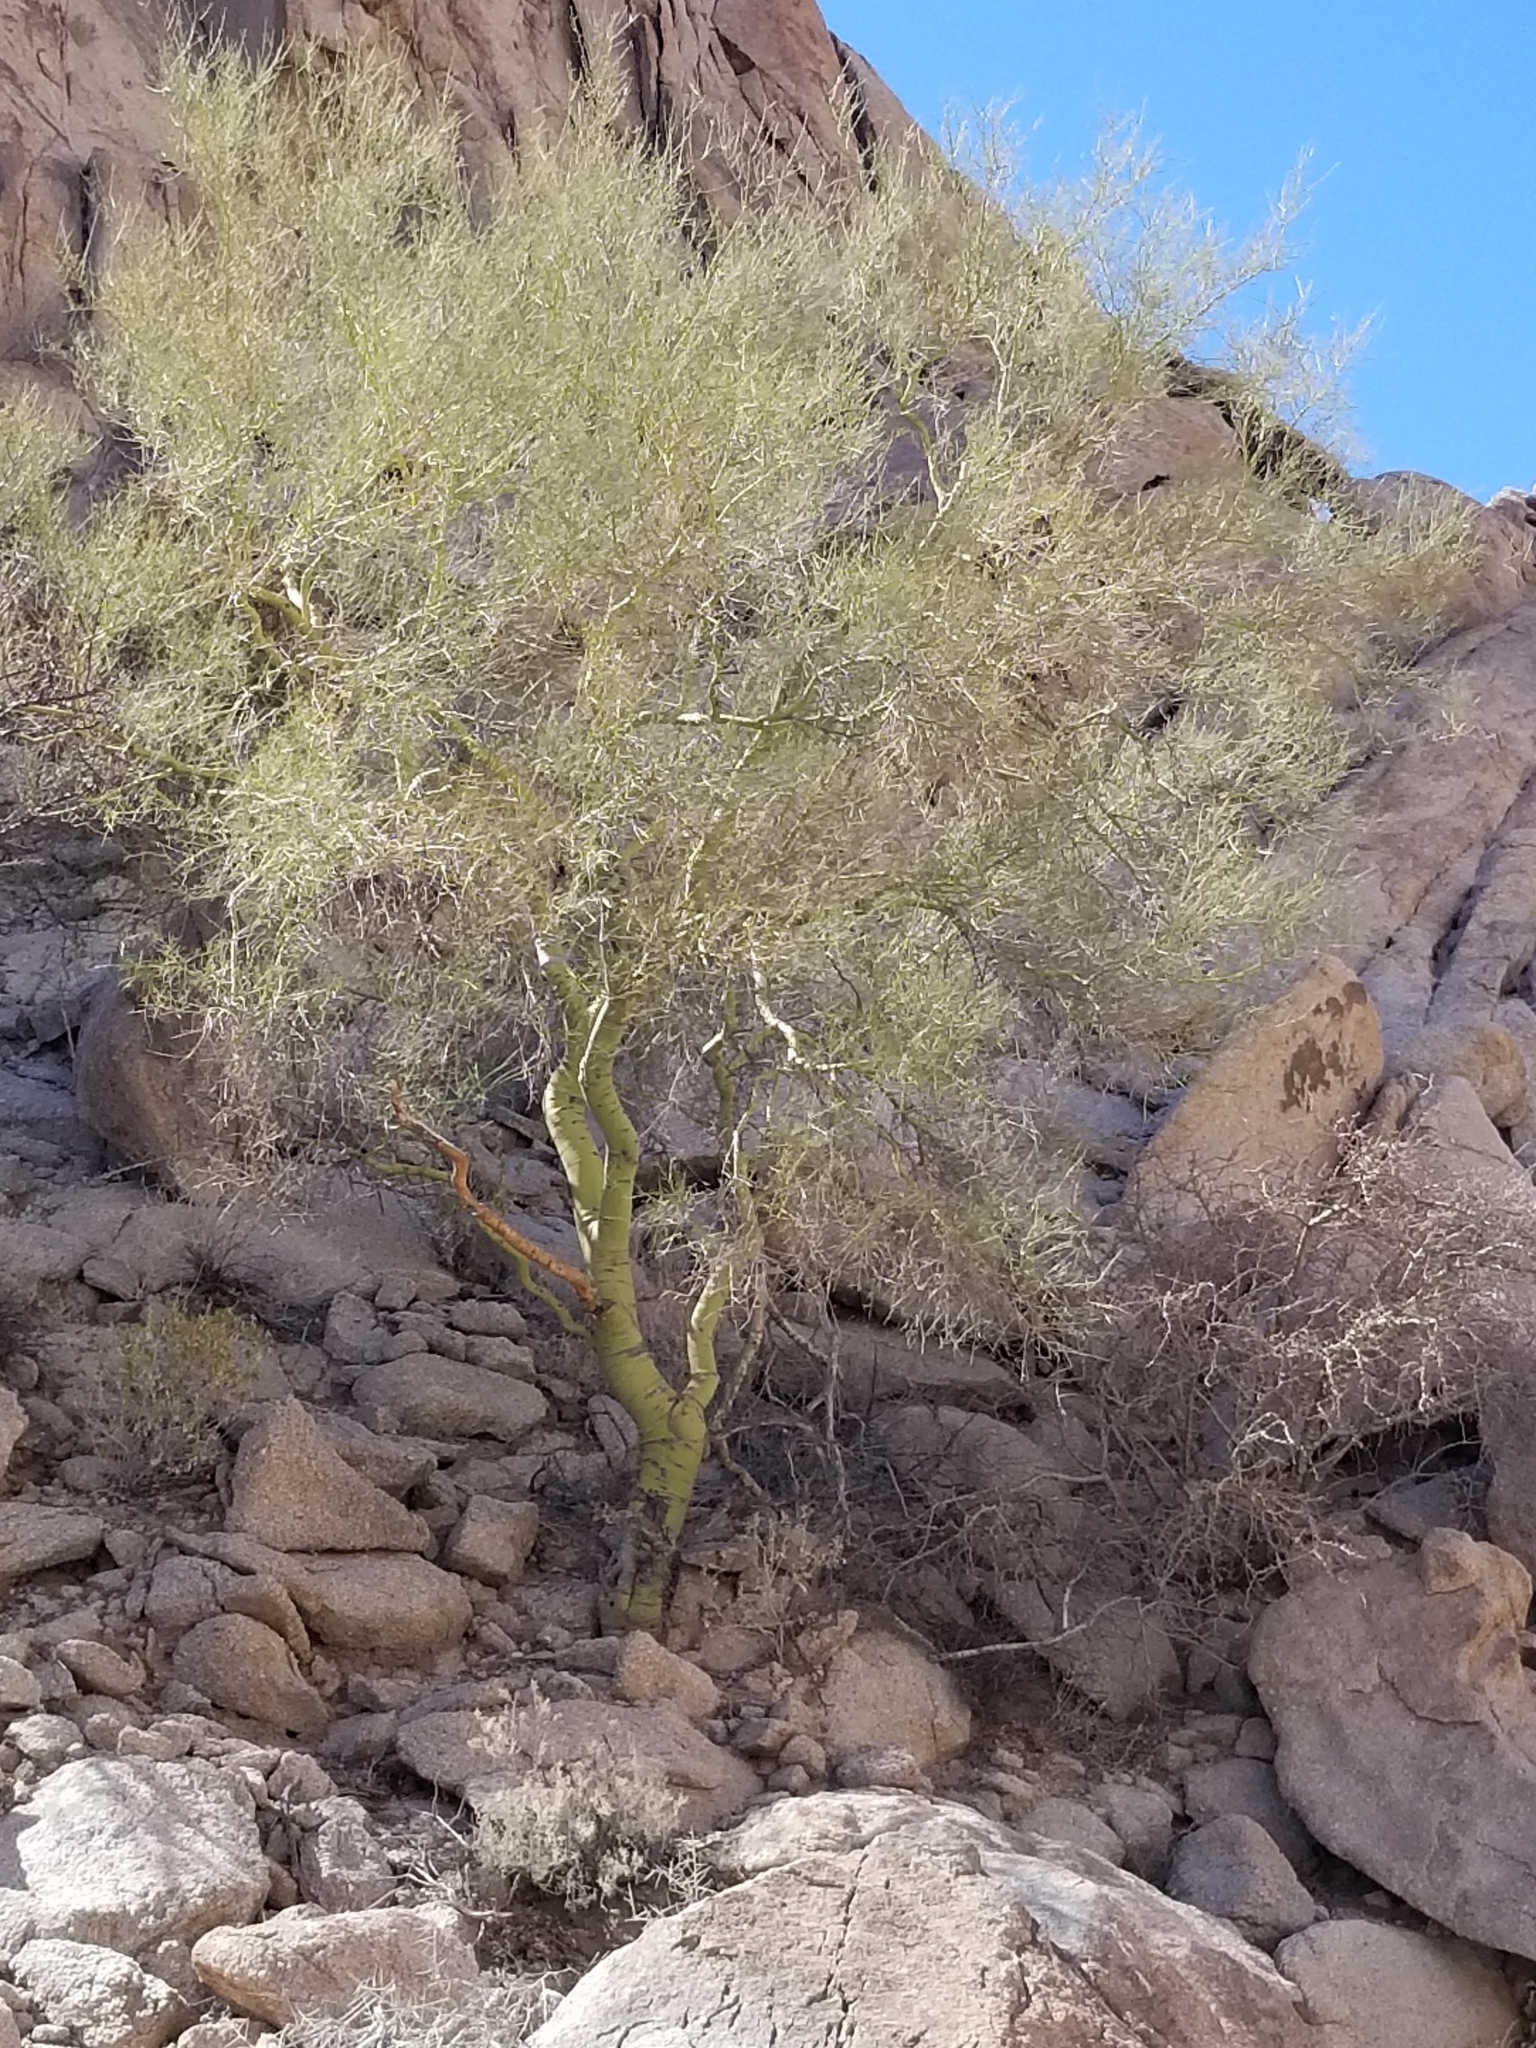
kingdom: Plantae
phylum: Tracheophyta
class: Magnoliopsida
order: Fabales
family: Fabaceae
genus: Parkinsonia
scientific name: Parkinsonia microphylla
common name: Yellow paloverde
